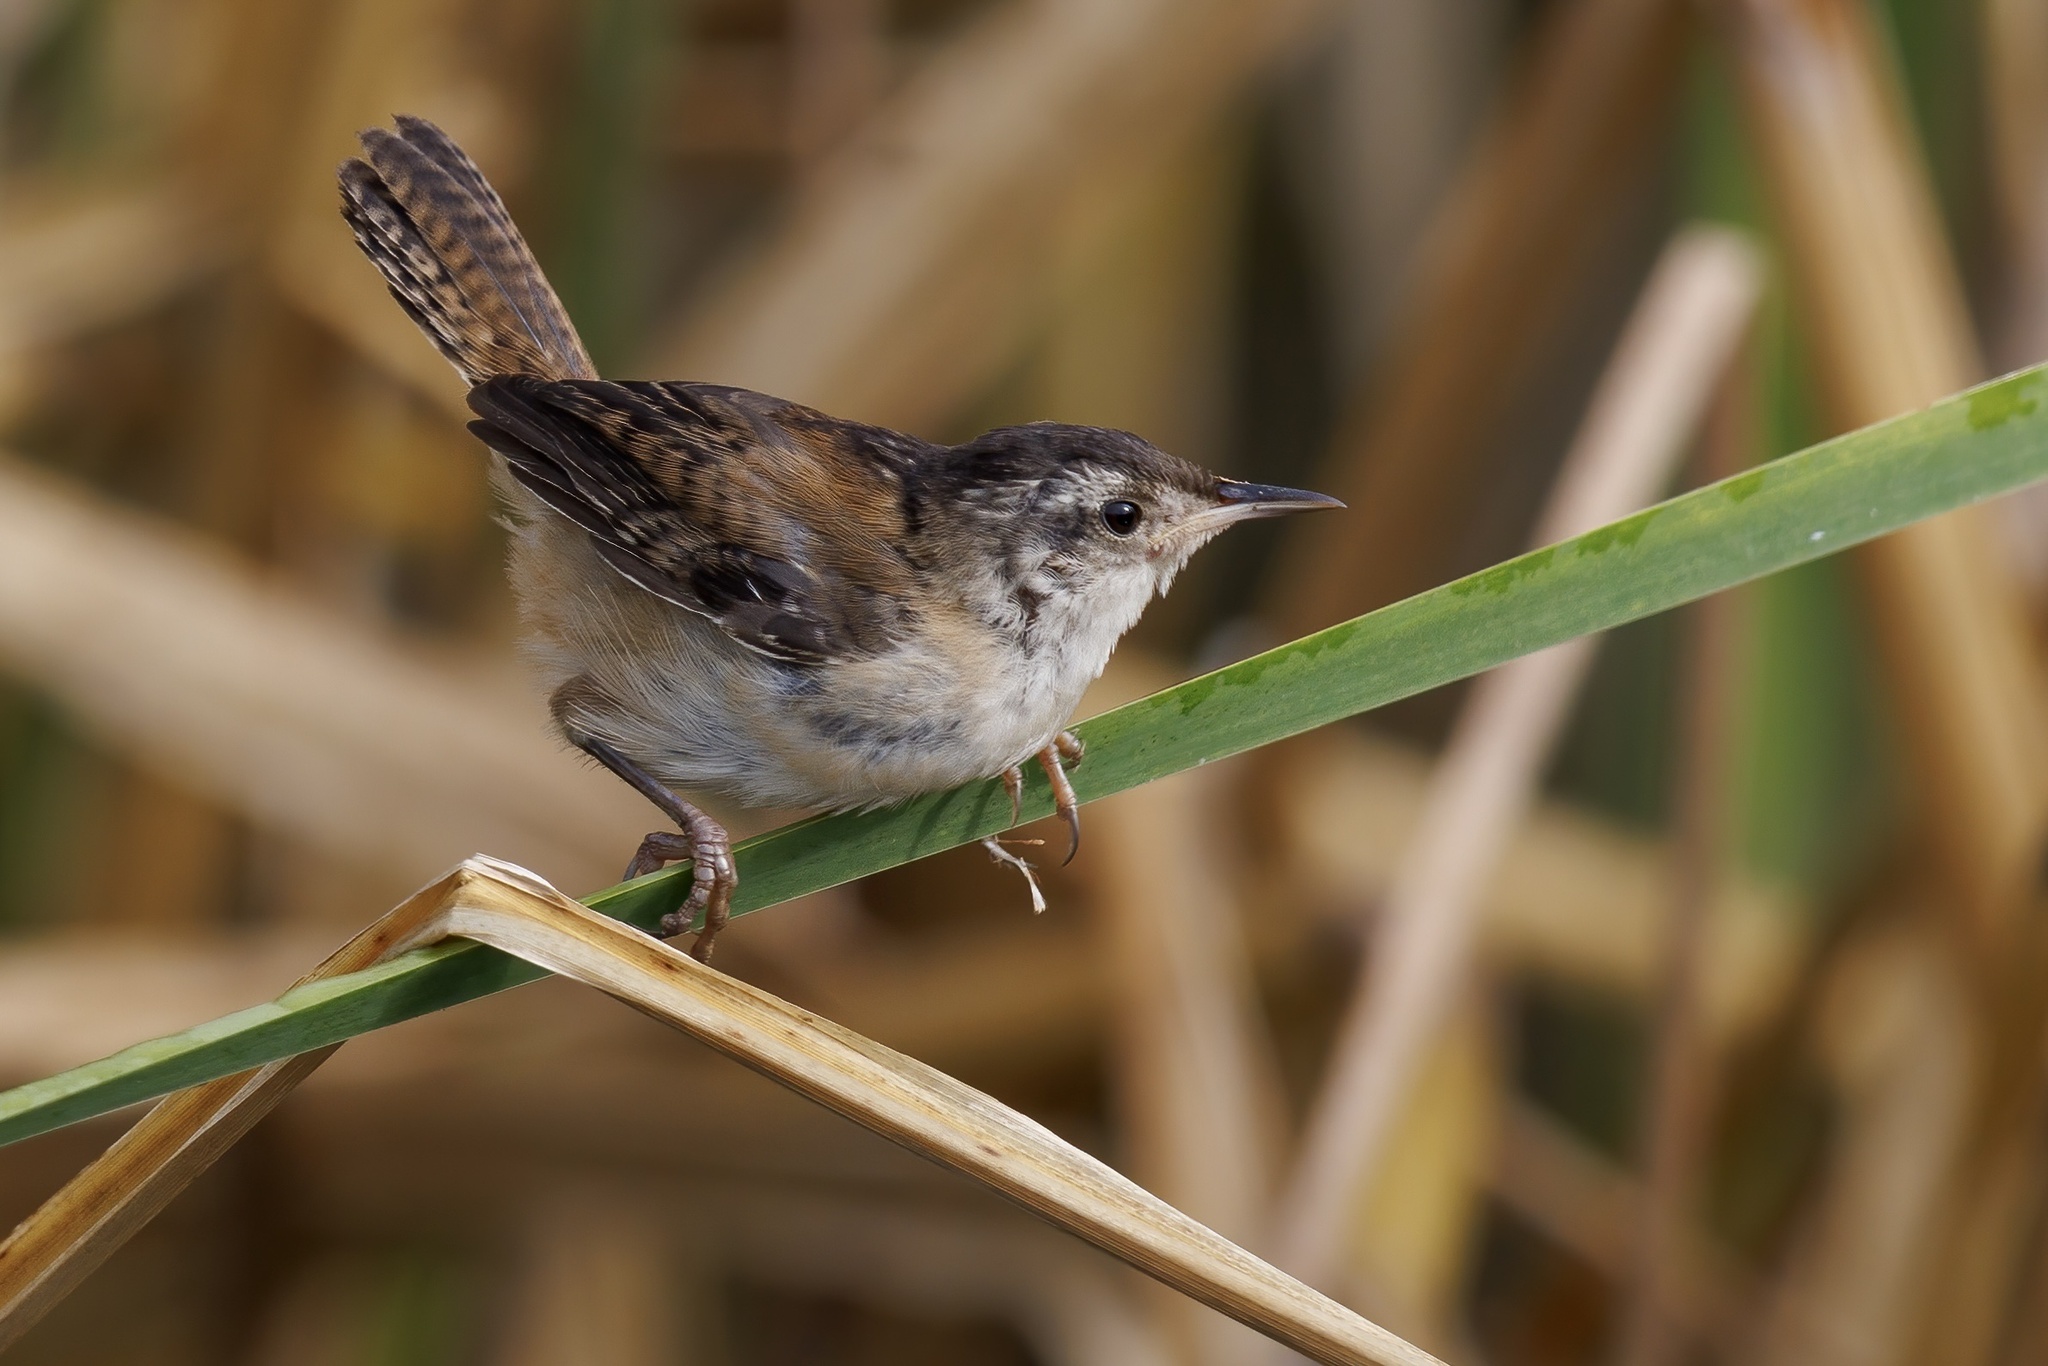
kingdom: Animalia
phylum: Chordata
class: Aves
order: Passeriformes
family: Troglodytidae
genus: Cistothorus
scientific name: Cistothorus palustris
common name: Marsh wren
